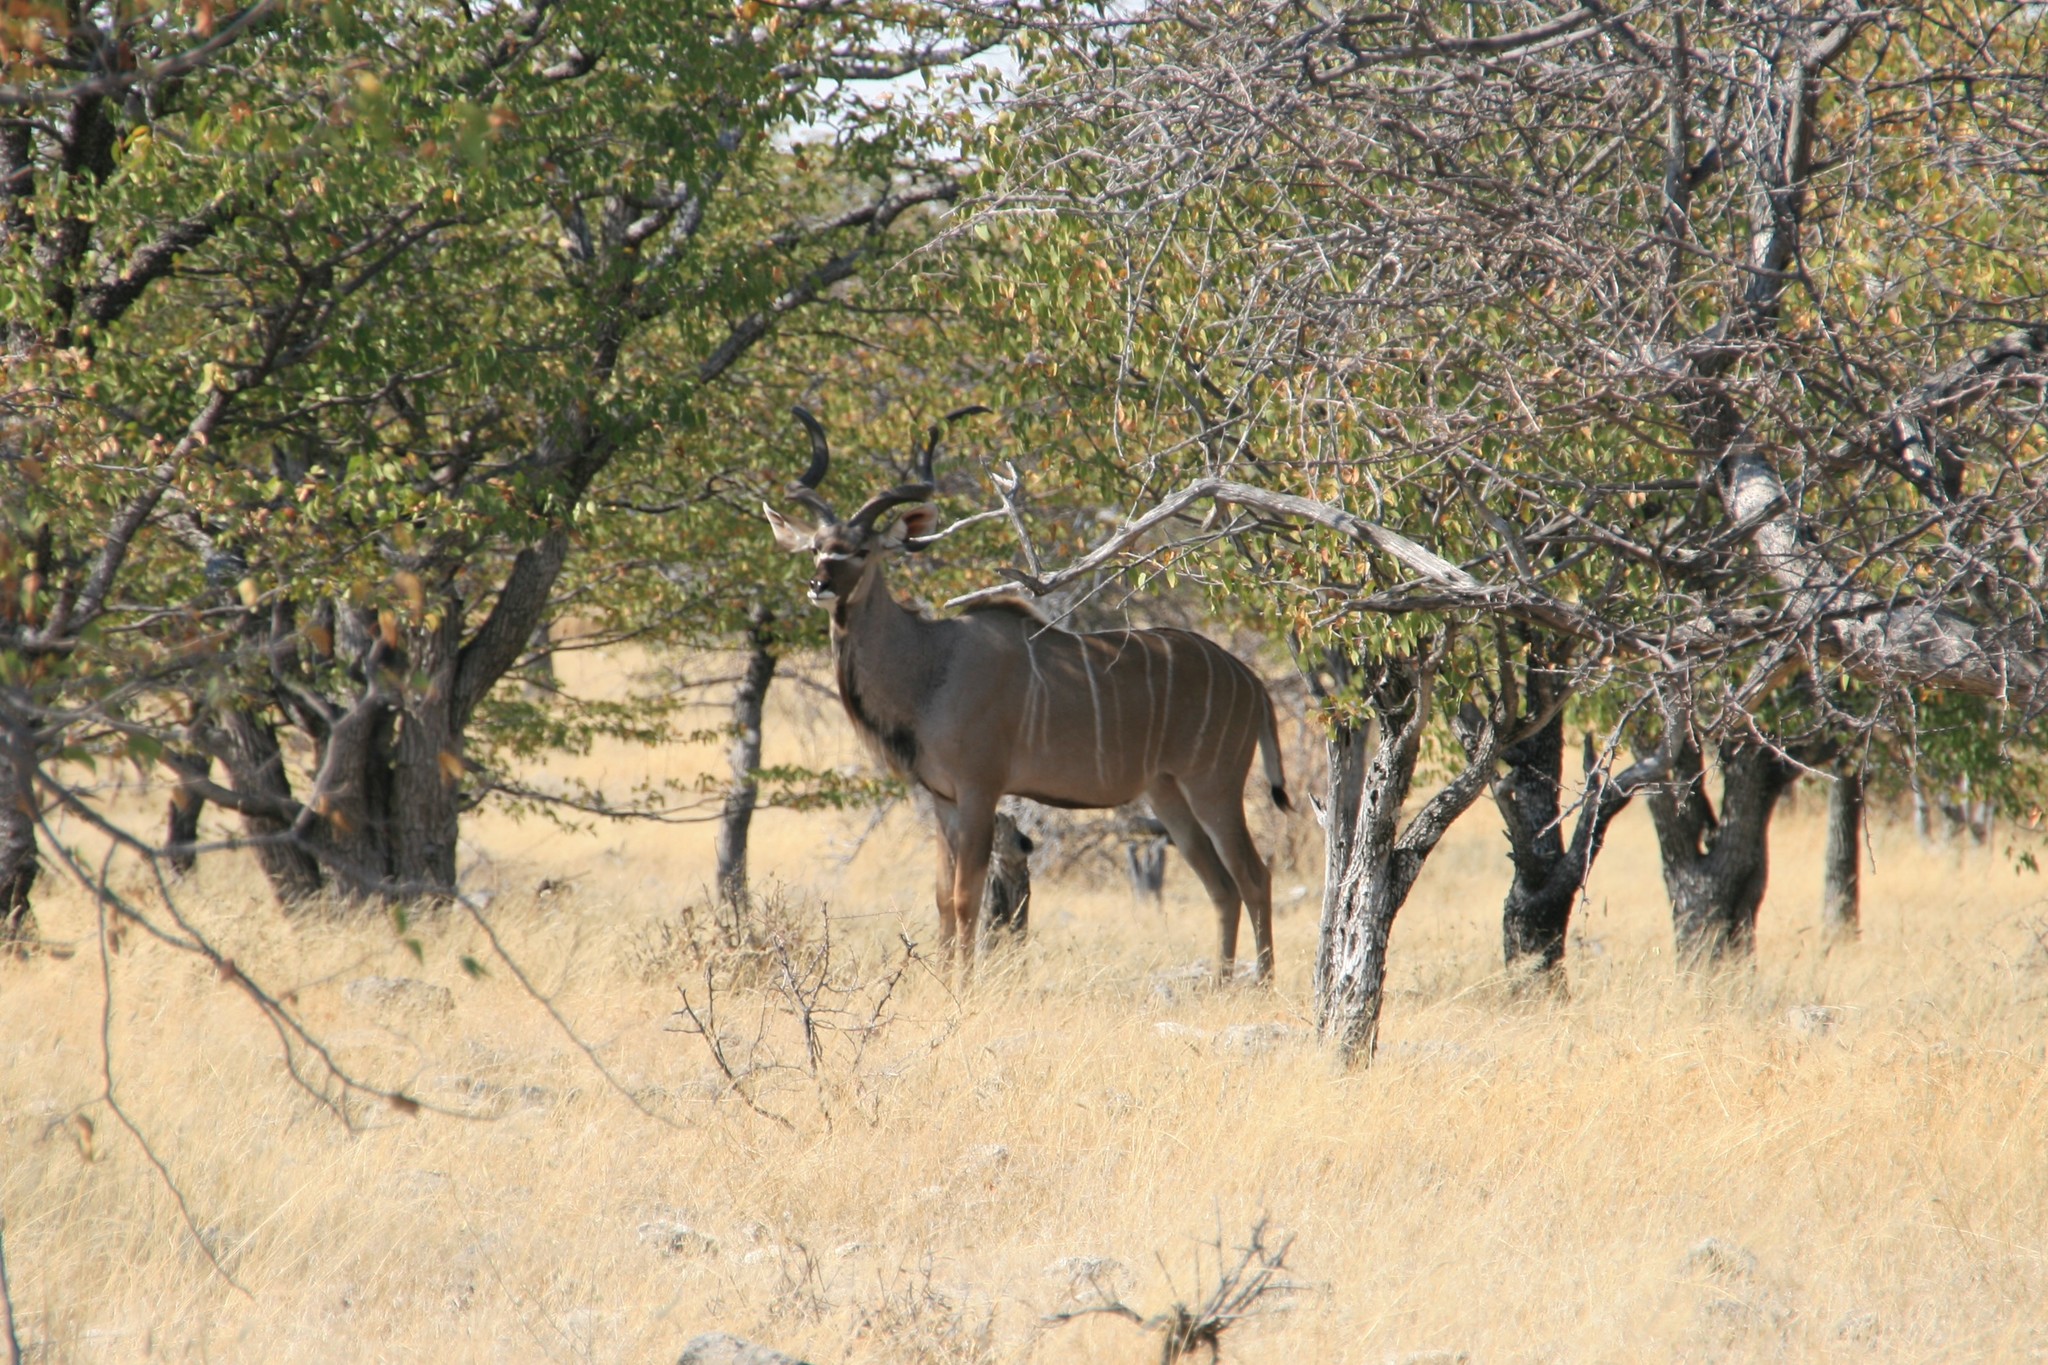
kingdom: Animalia
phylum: Chordata
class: Mammalia
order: Artiodactyla
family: Bovidae
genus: Tragelaphus
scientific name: Tragelaphus strepsiceros
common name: Greater kudu
